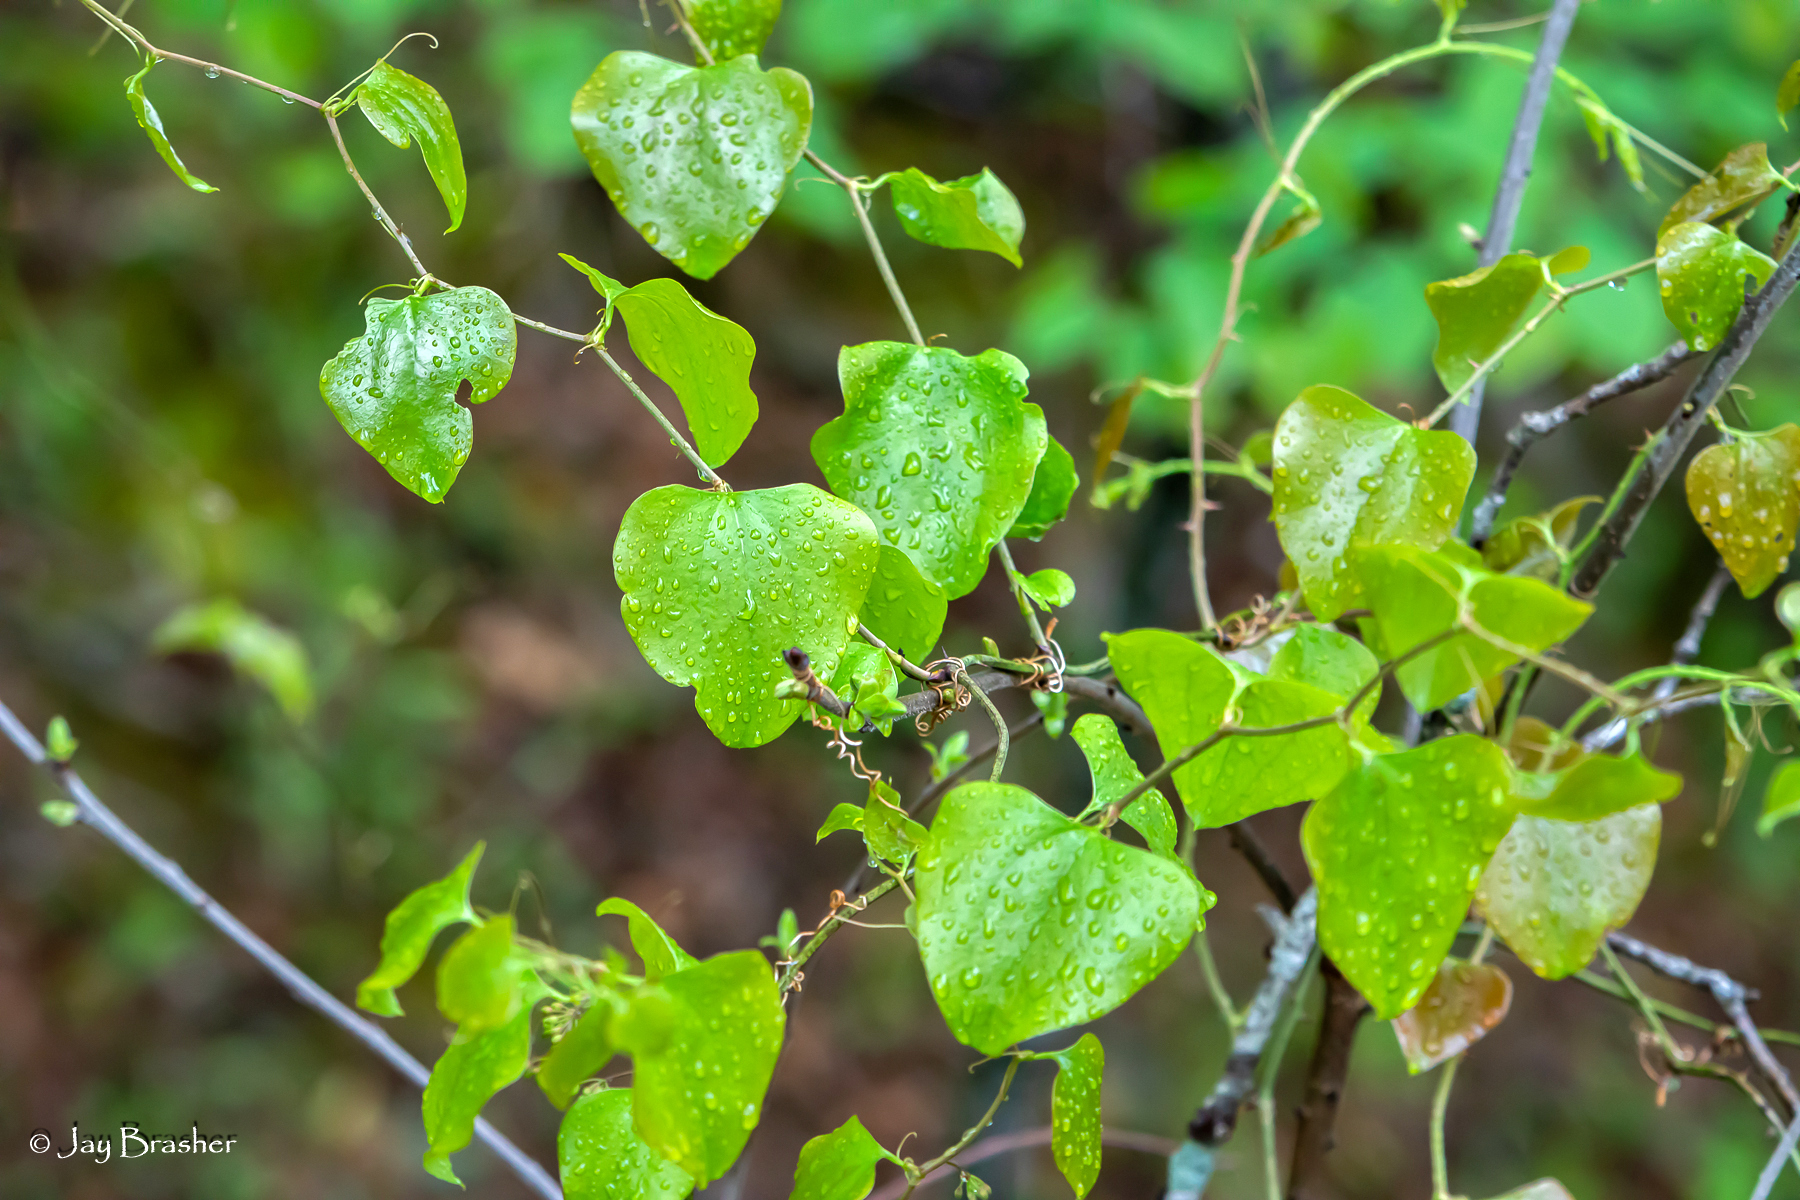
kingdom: Plantae
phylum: Tracheophyta
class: Liliopsida
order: Liliales
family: Smilacaceae
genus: Smilax
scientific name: Smilax rotundifolia
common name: Bullbriar
